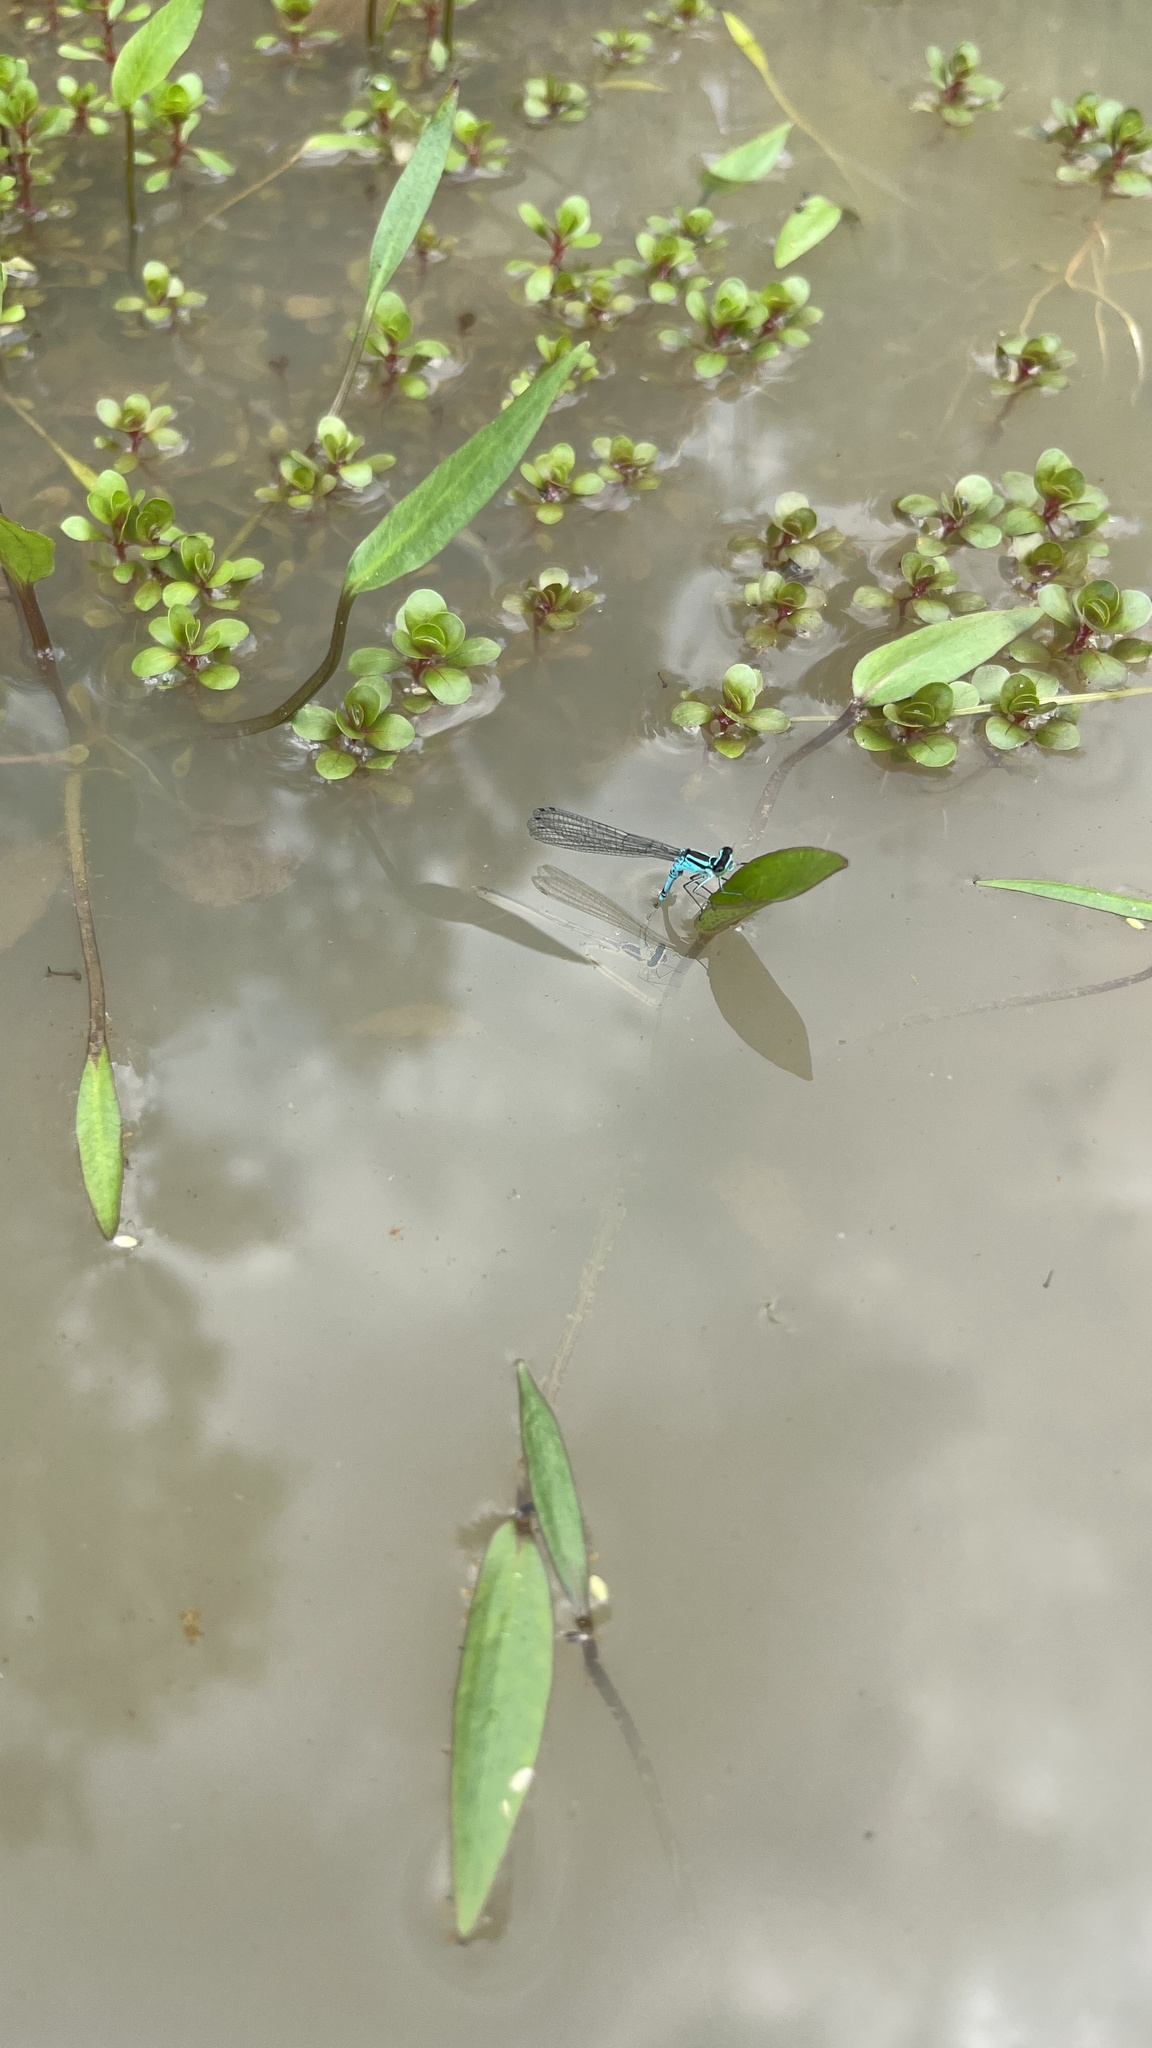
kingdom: Animalia
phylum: Arthropoda
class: Insecta
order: Odonata
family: Coenagrionidae
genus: Coenagrion
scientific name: Coenagrion hastulatum
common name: Spearhead bluet
